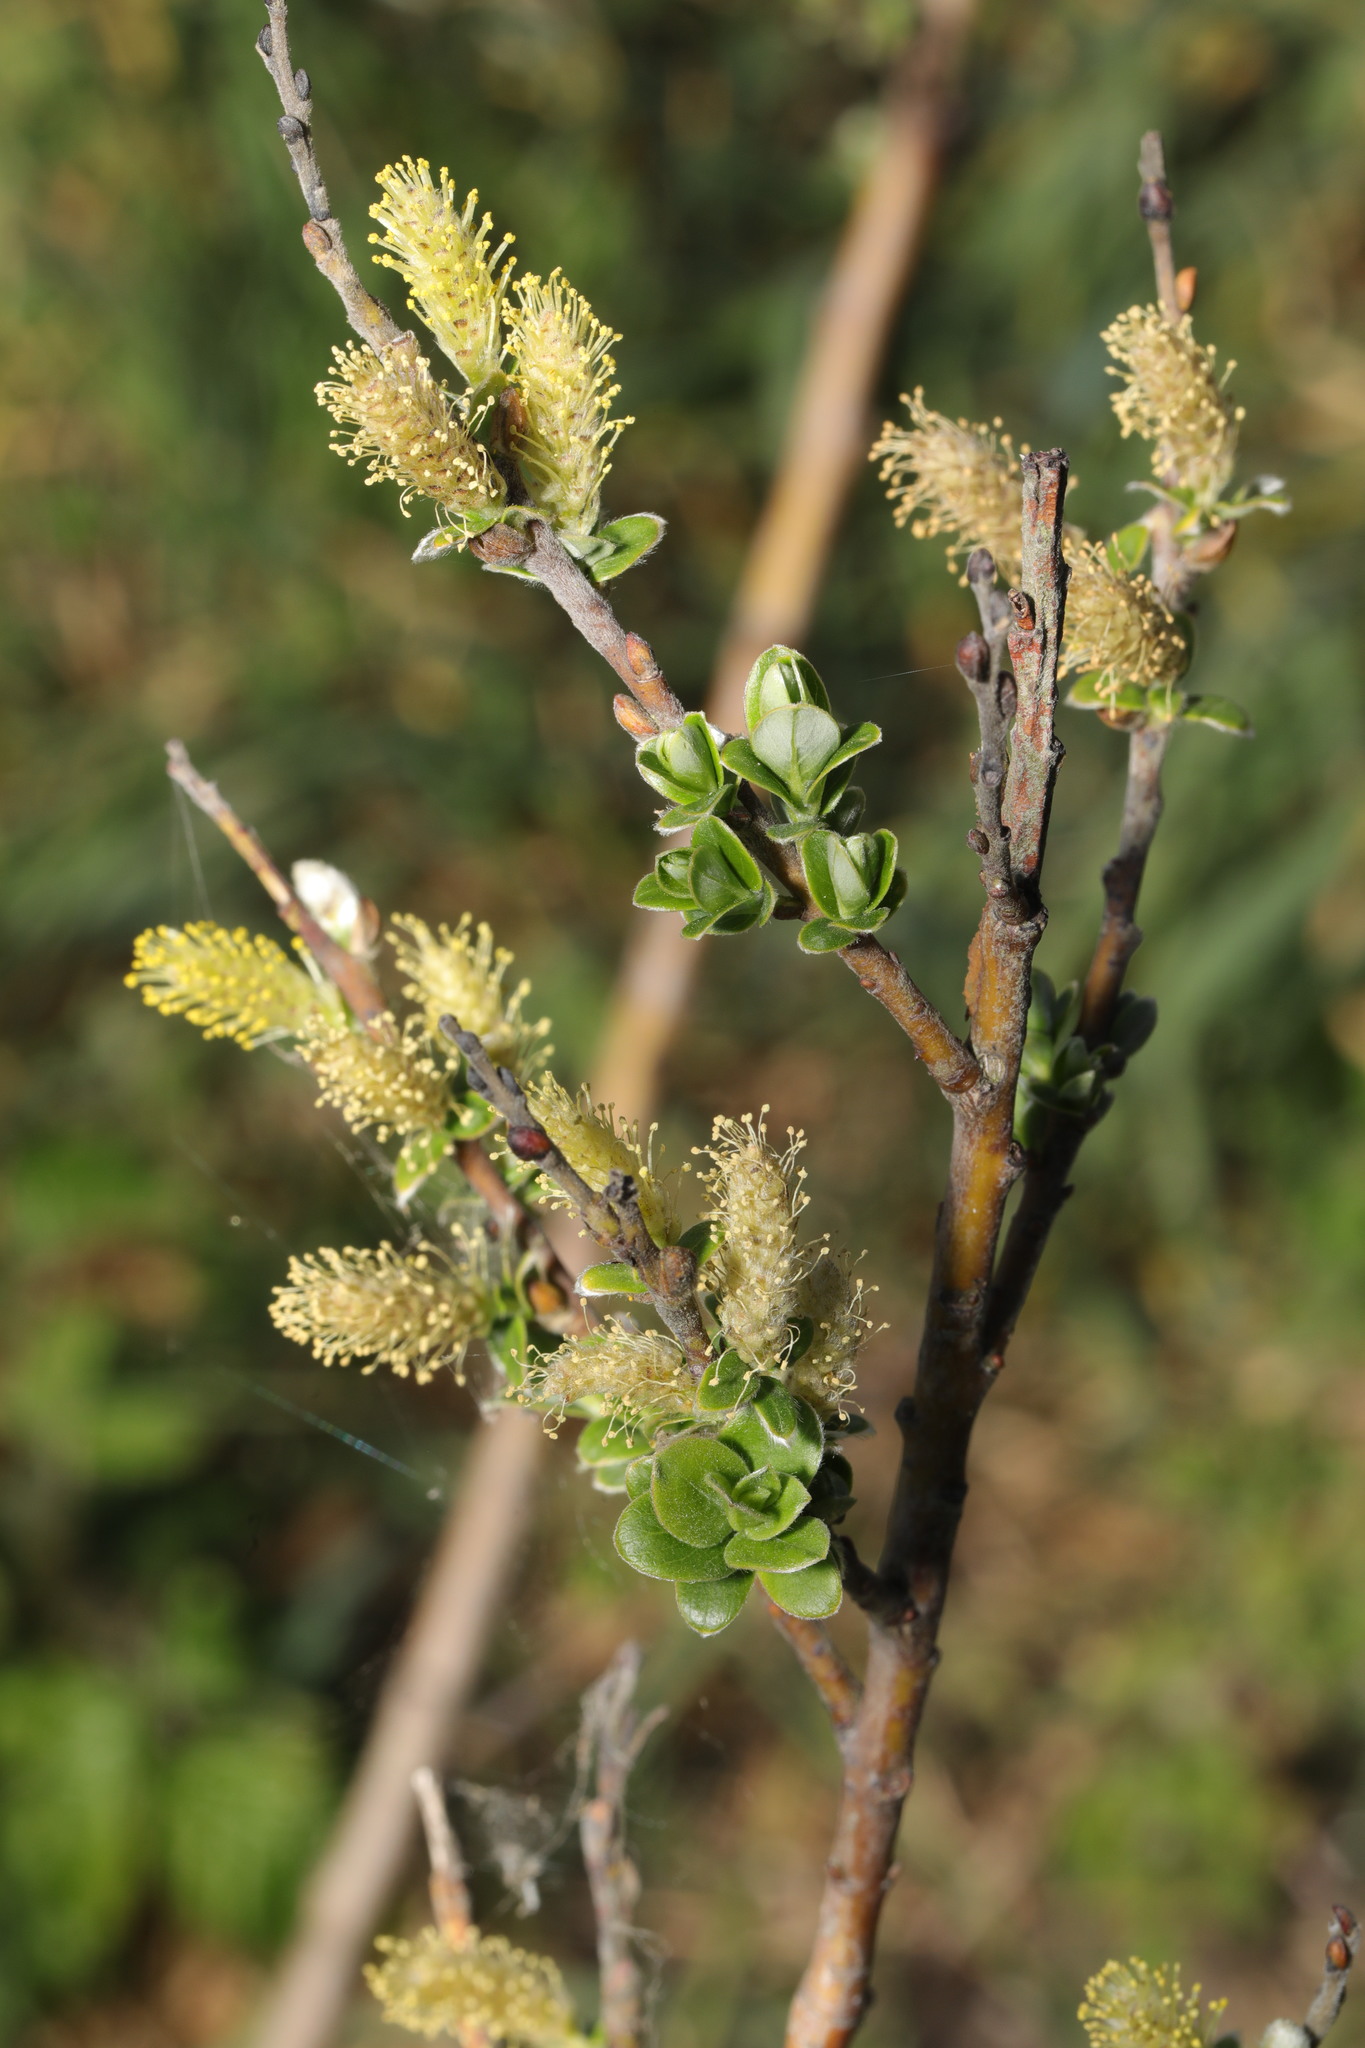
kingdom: Plantae
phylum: Tracheophyta
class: Magnoliopsida
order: Malpighiales
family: Salicaceae
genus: Salix
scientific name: Salix repens
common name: Creeping willow
